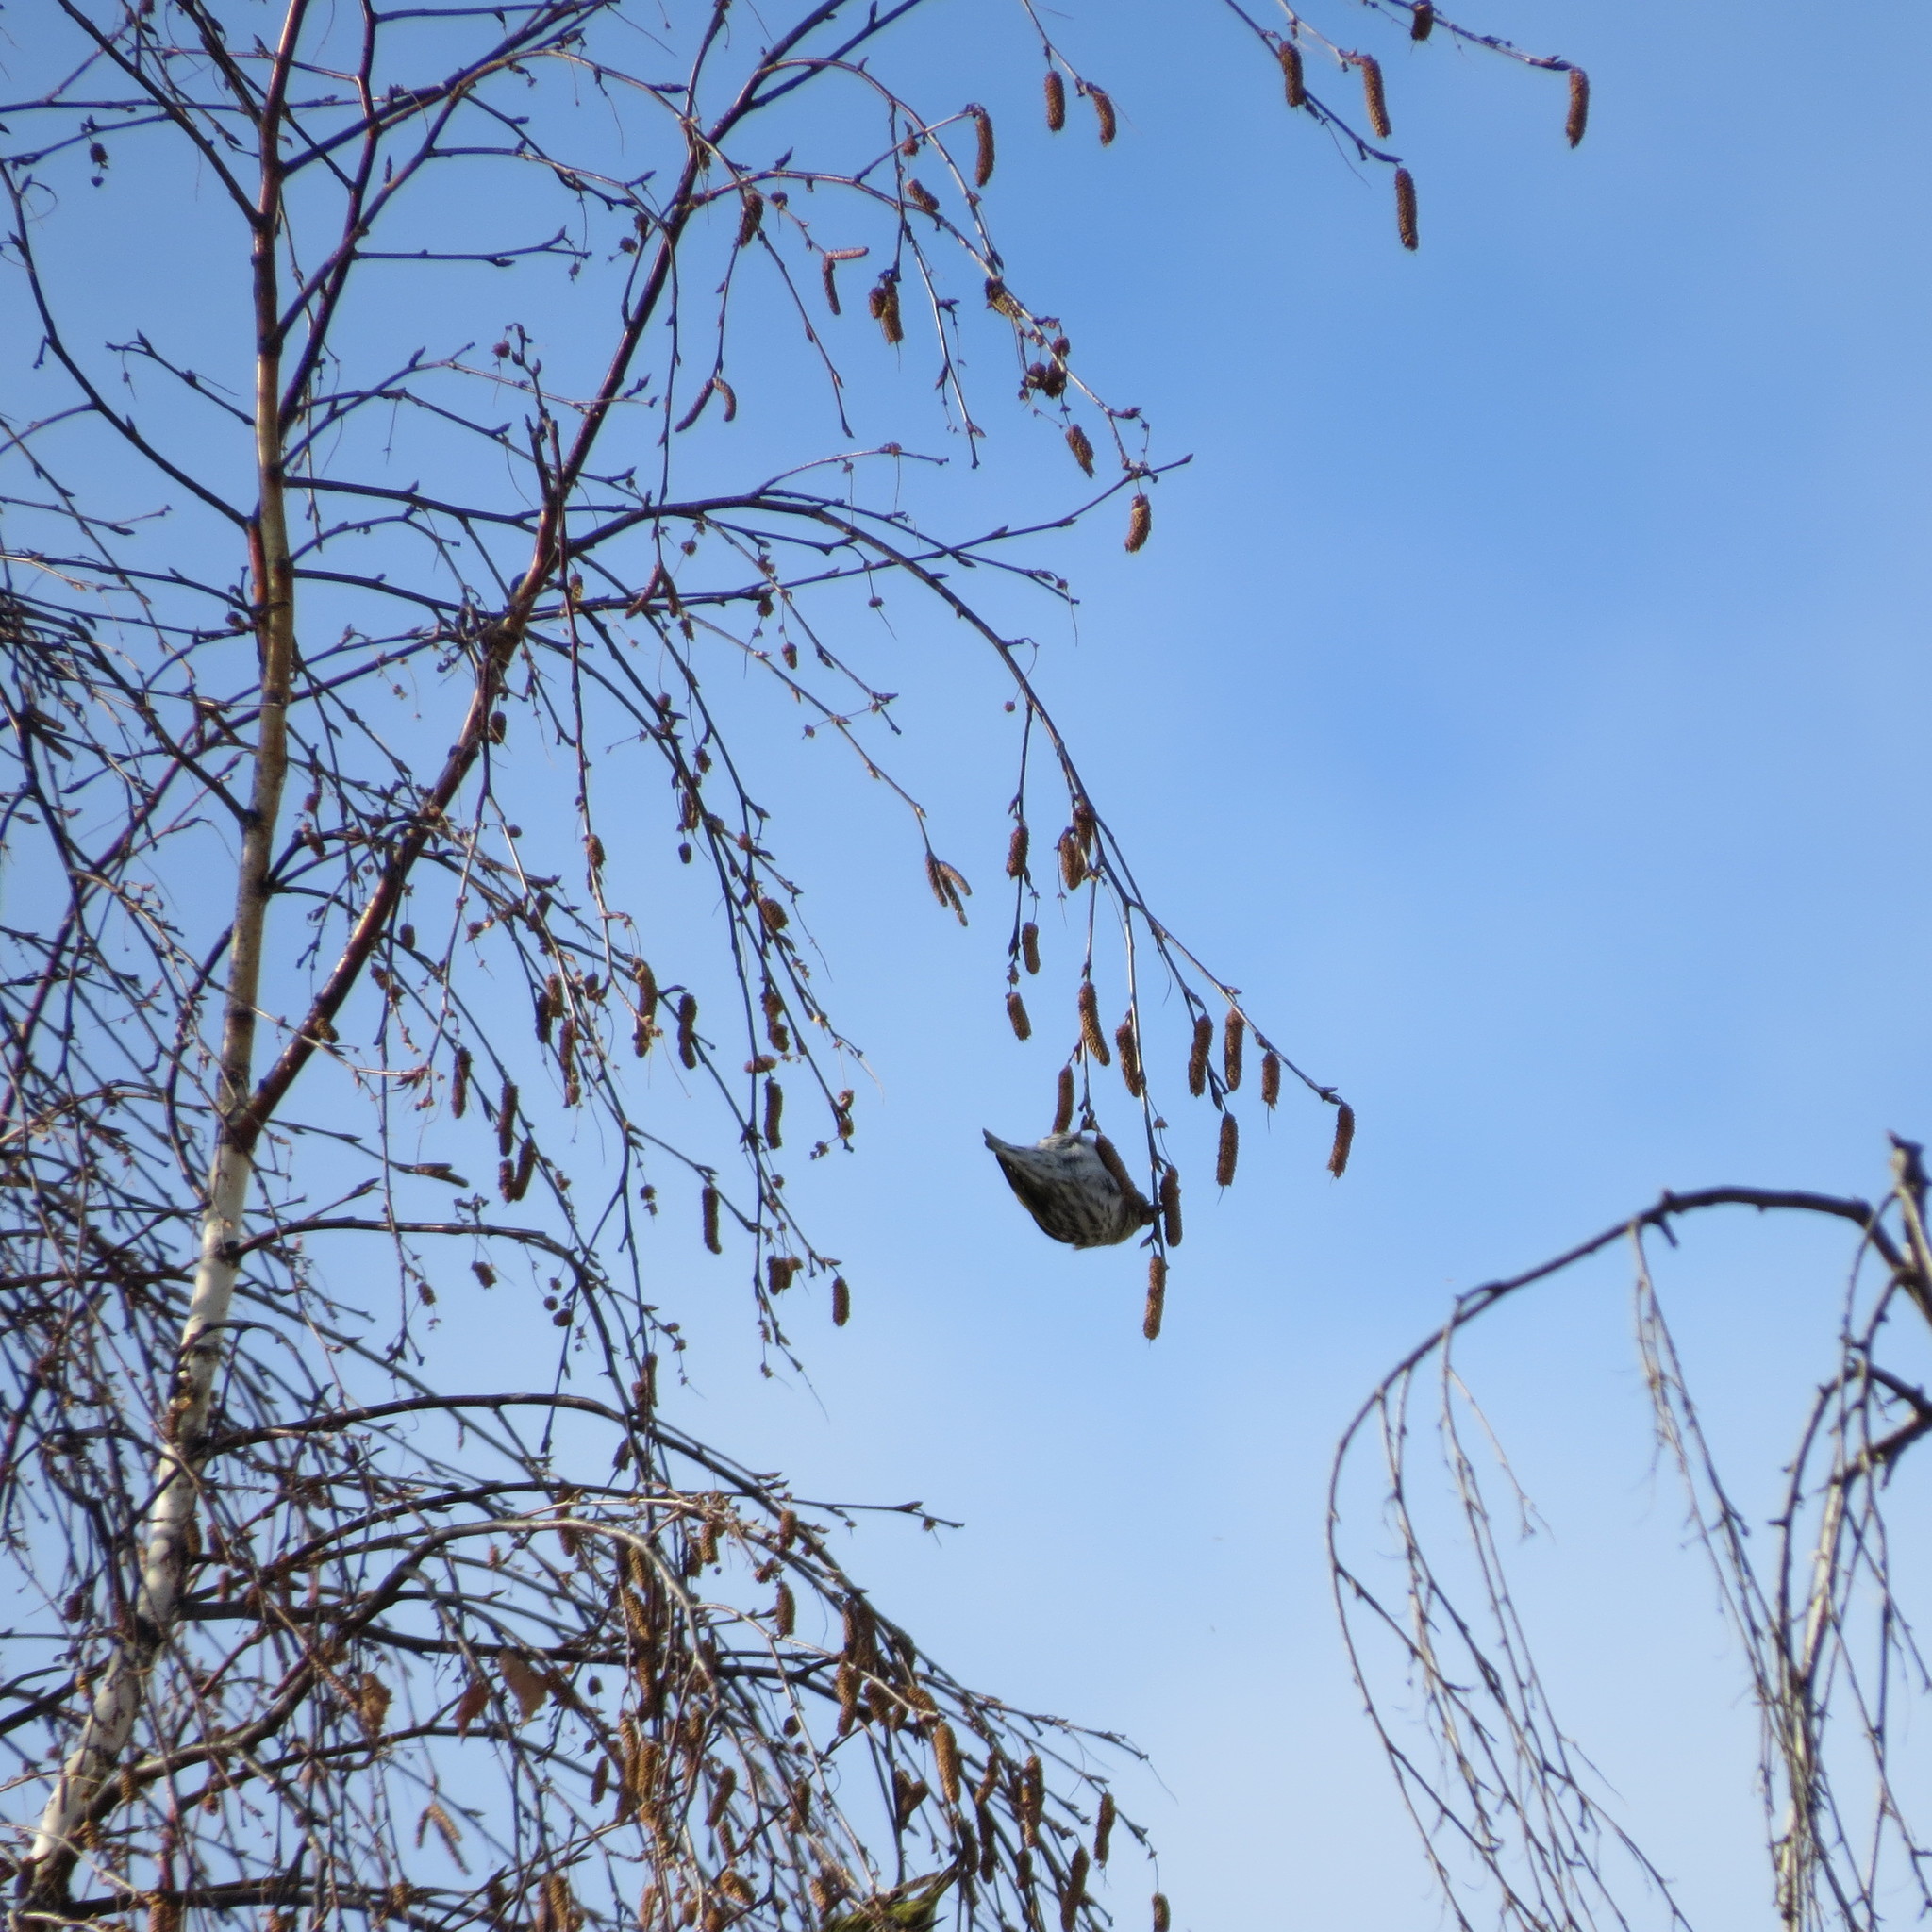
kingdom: Animalia
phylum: Chordata
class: Aves
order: Passeriformes
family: Fringillidae
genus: Spinus
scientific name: Spinus spinus
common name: Eurasian siskin
